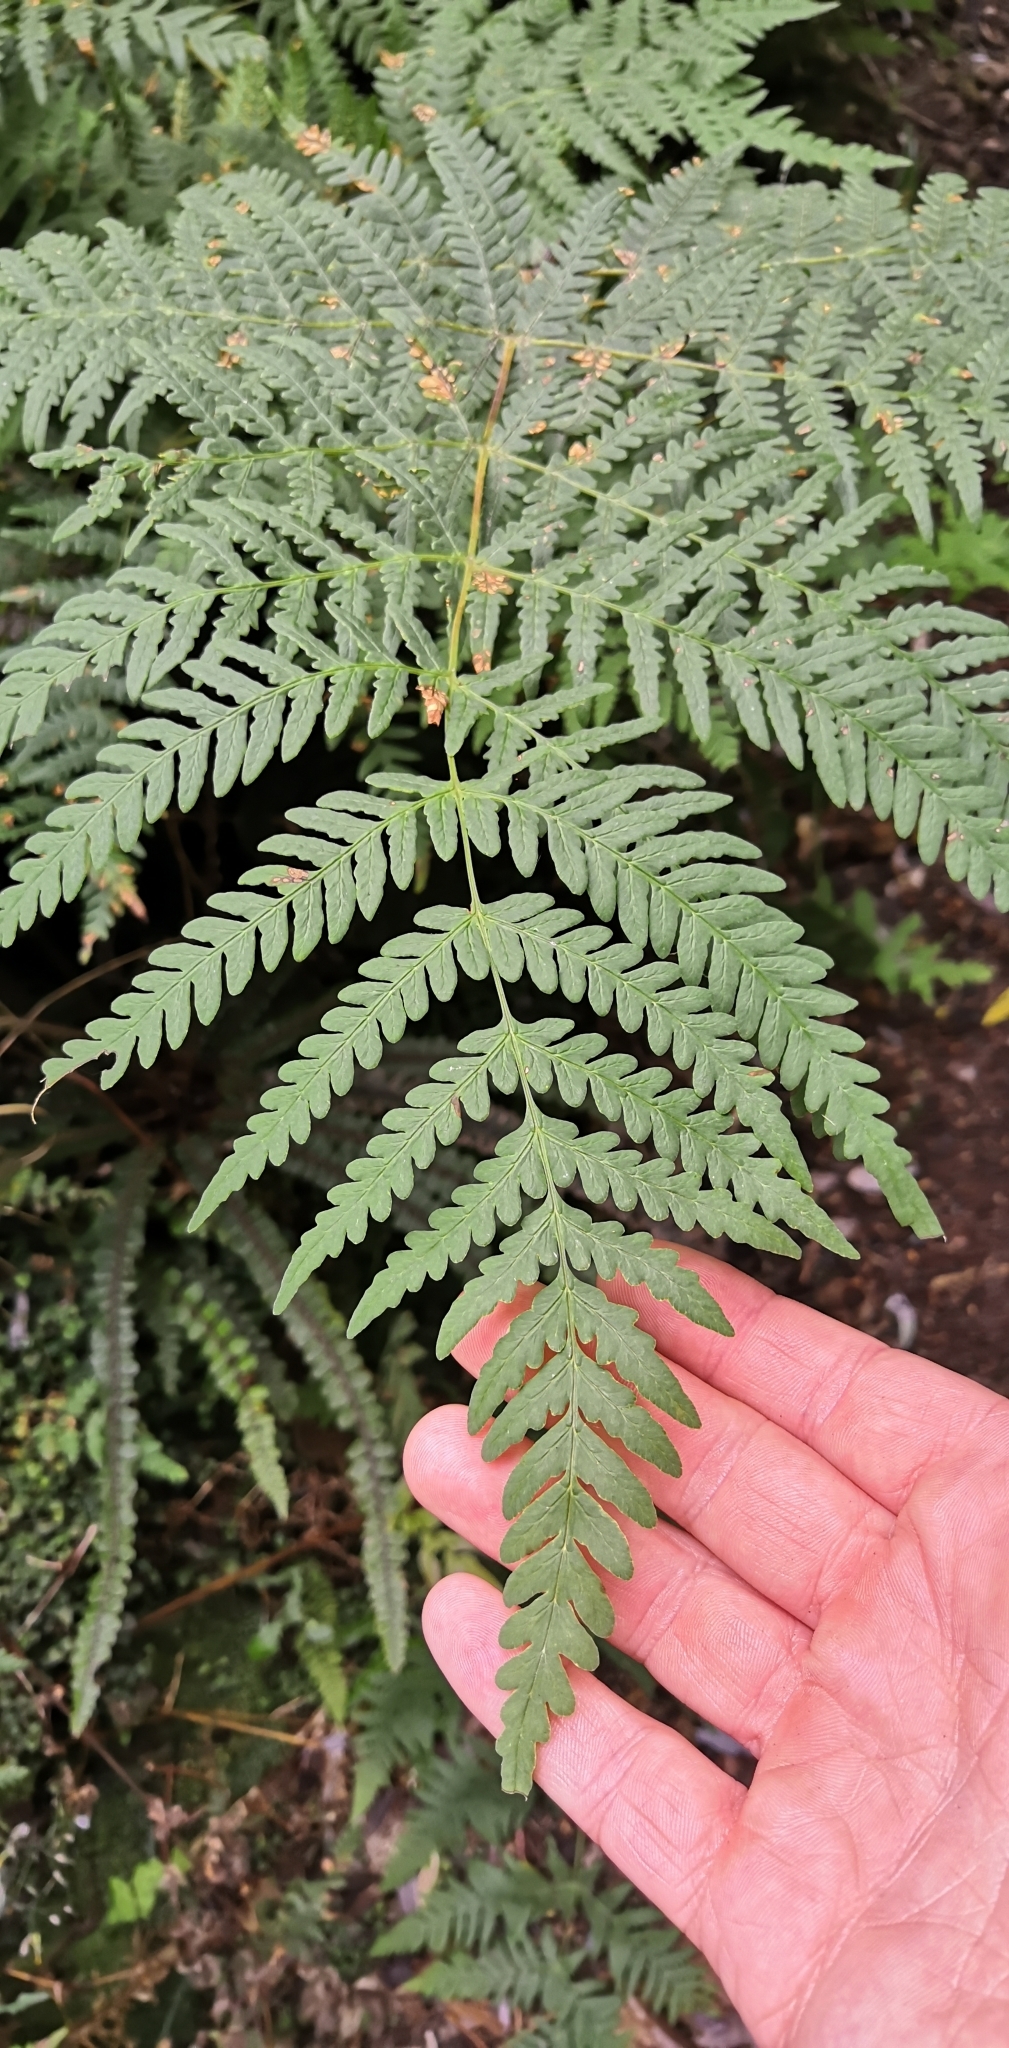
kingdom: Plantae
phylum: Tracheophyta
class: Polypodiopsida
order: Polypodiales
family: Dennstaedtiaceae
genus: Histiopteris
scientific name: Histiopteris incisa
